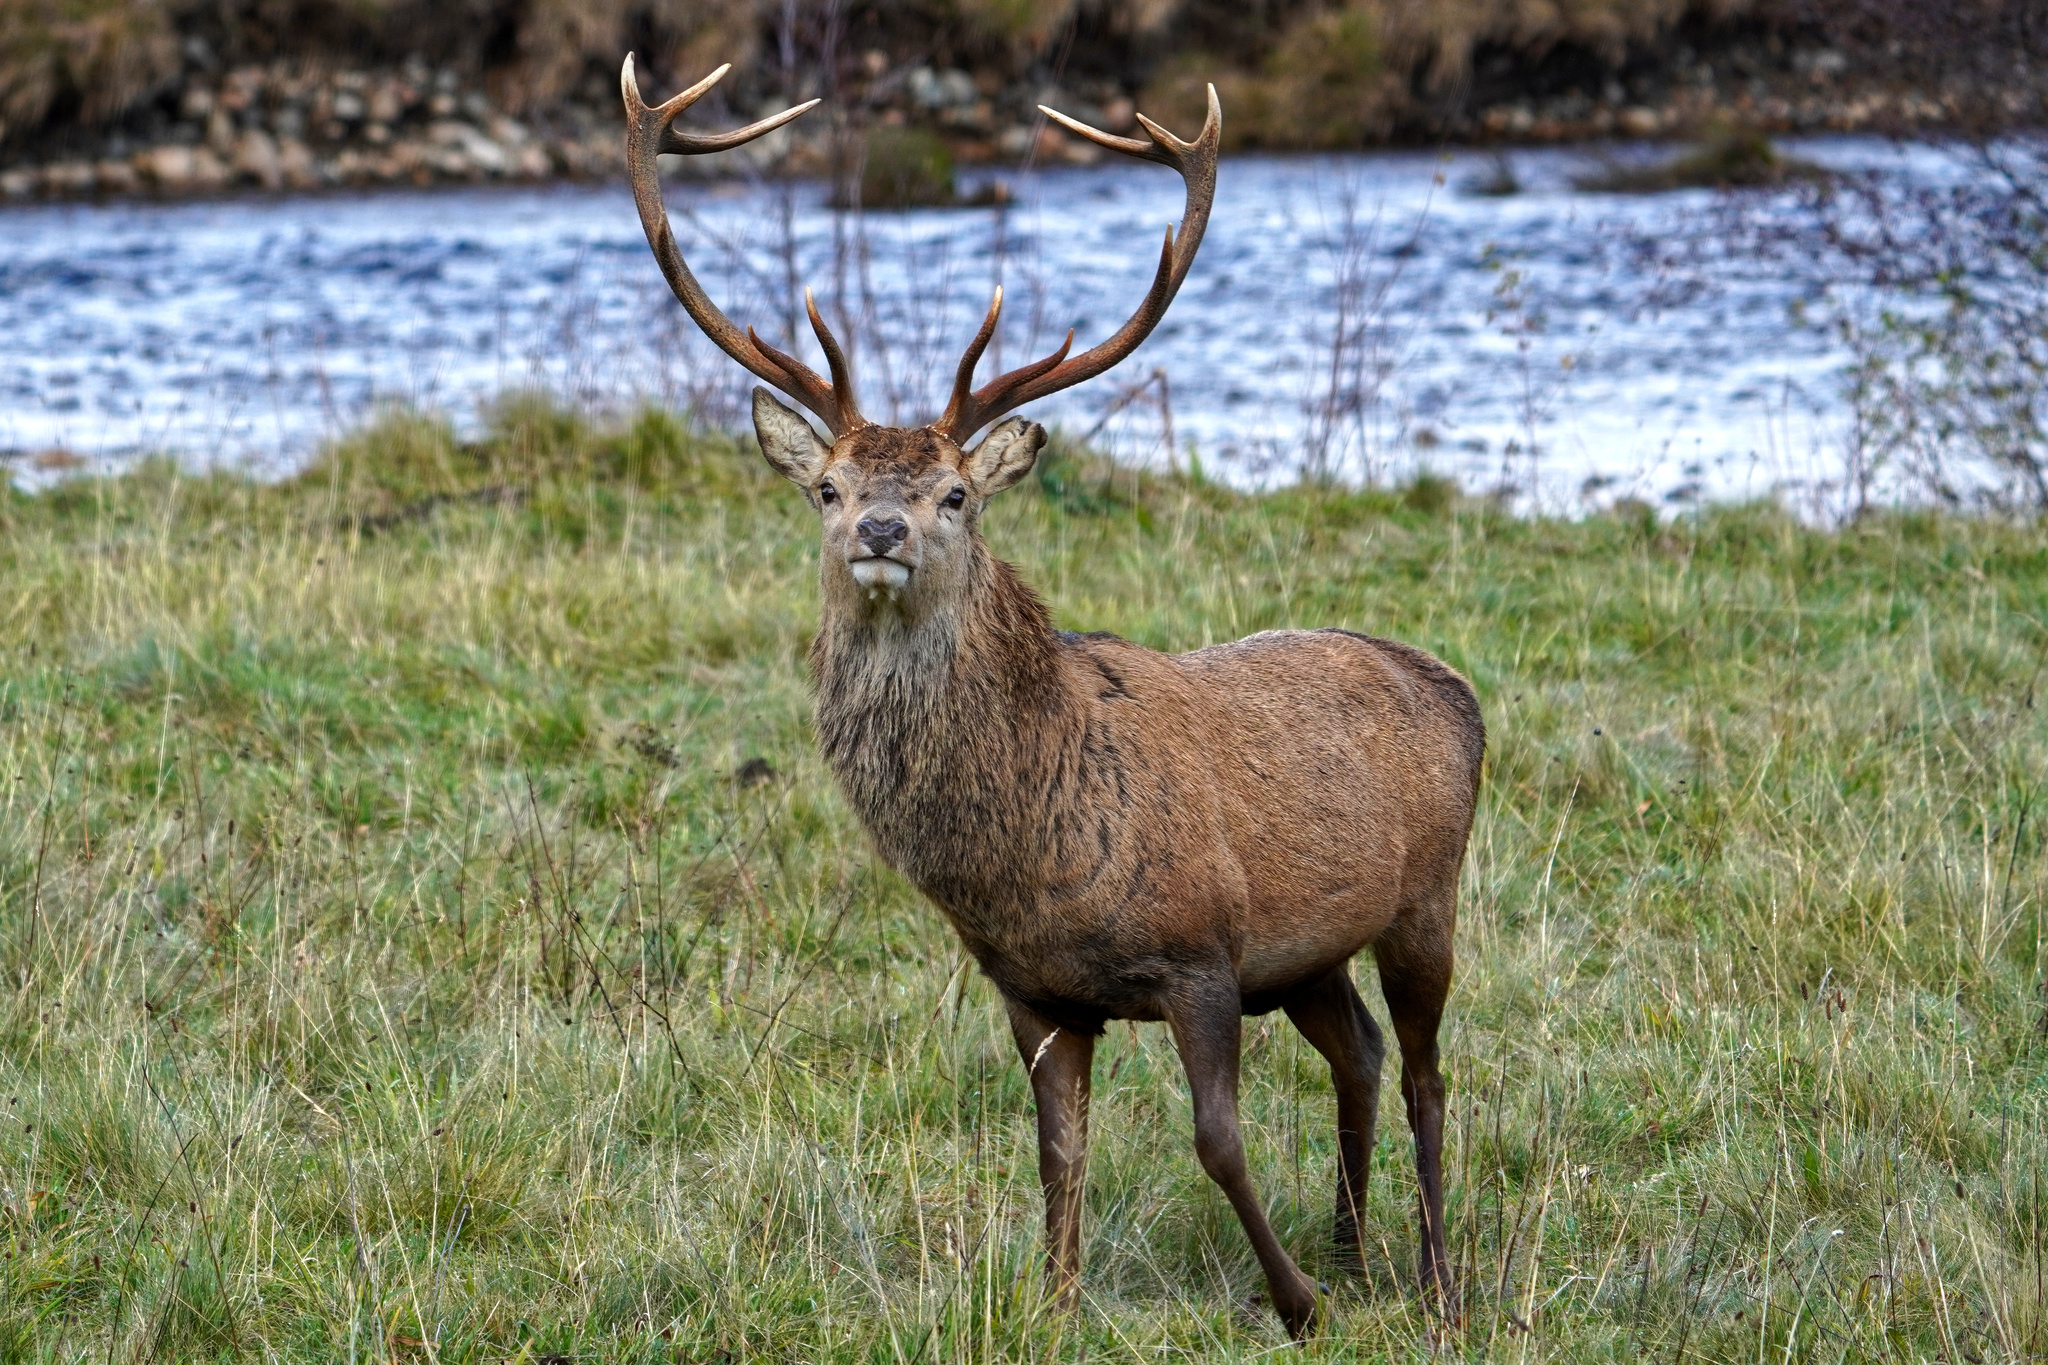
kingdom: Animalia
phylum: Chordata
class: Mammalia
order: Artiodactyla
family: Cervidae
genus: Cervus
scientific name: Cervus elaphus
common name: Red deer
